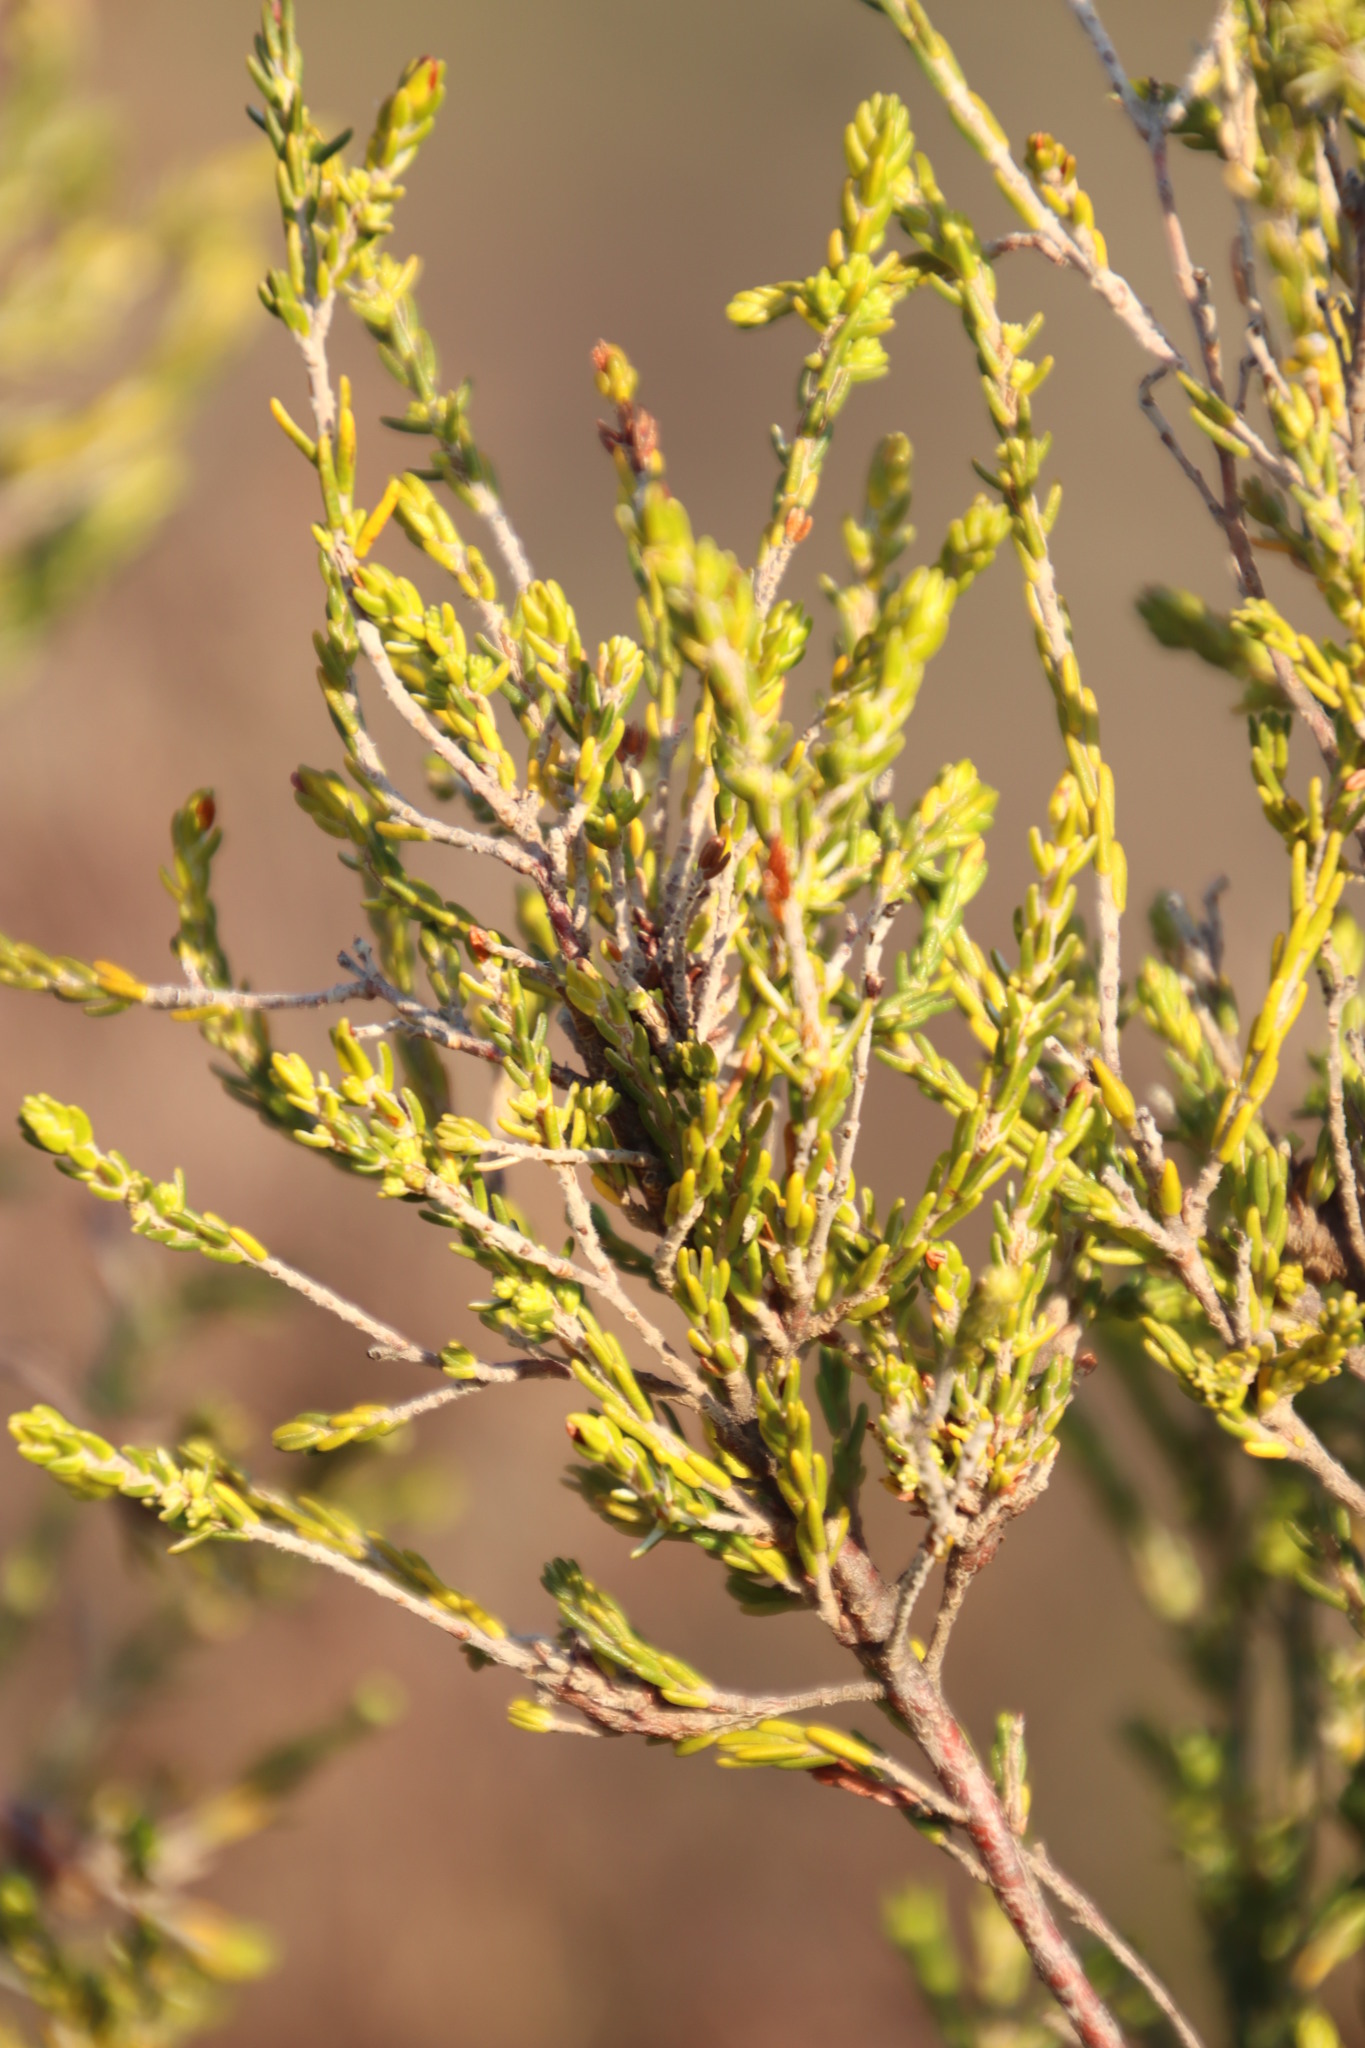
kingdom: Plantae
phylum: Tracheophyta
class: Magnoliopsida
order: Malvales
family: Thymelaeaceae
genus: Passerina
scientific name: Passerina corymbosa
